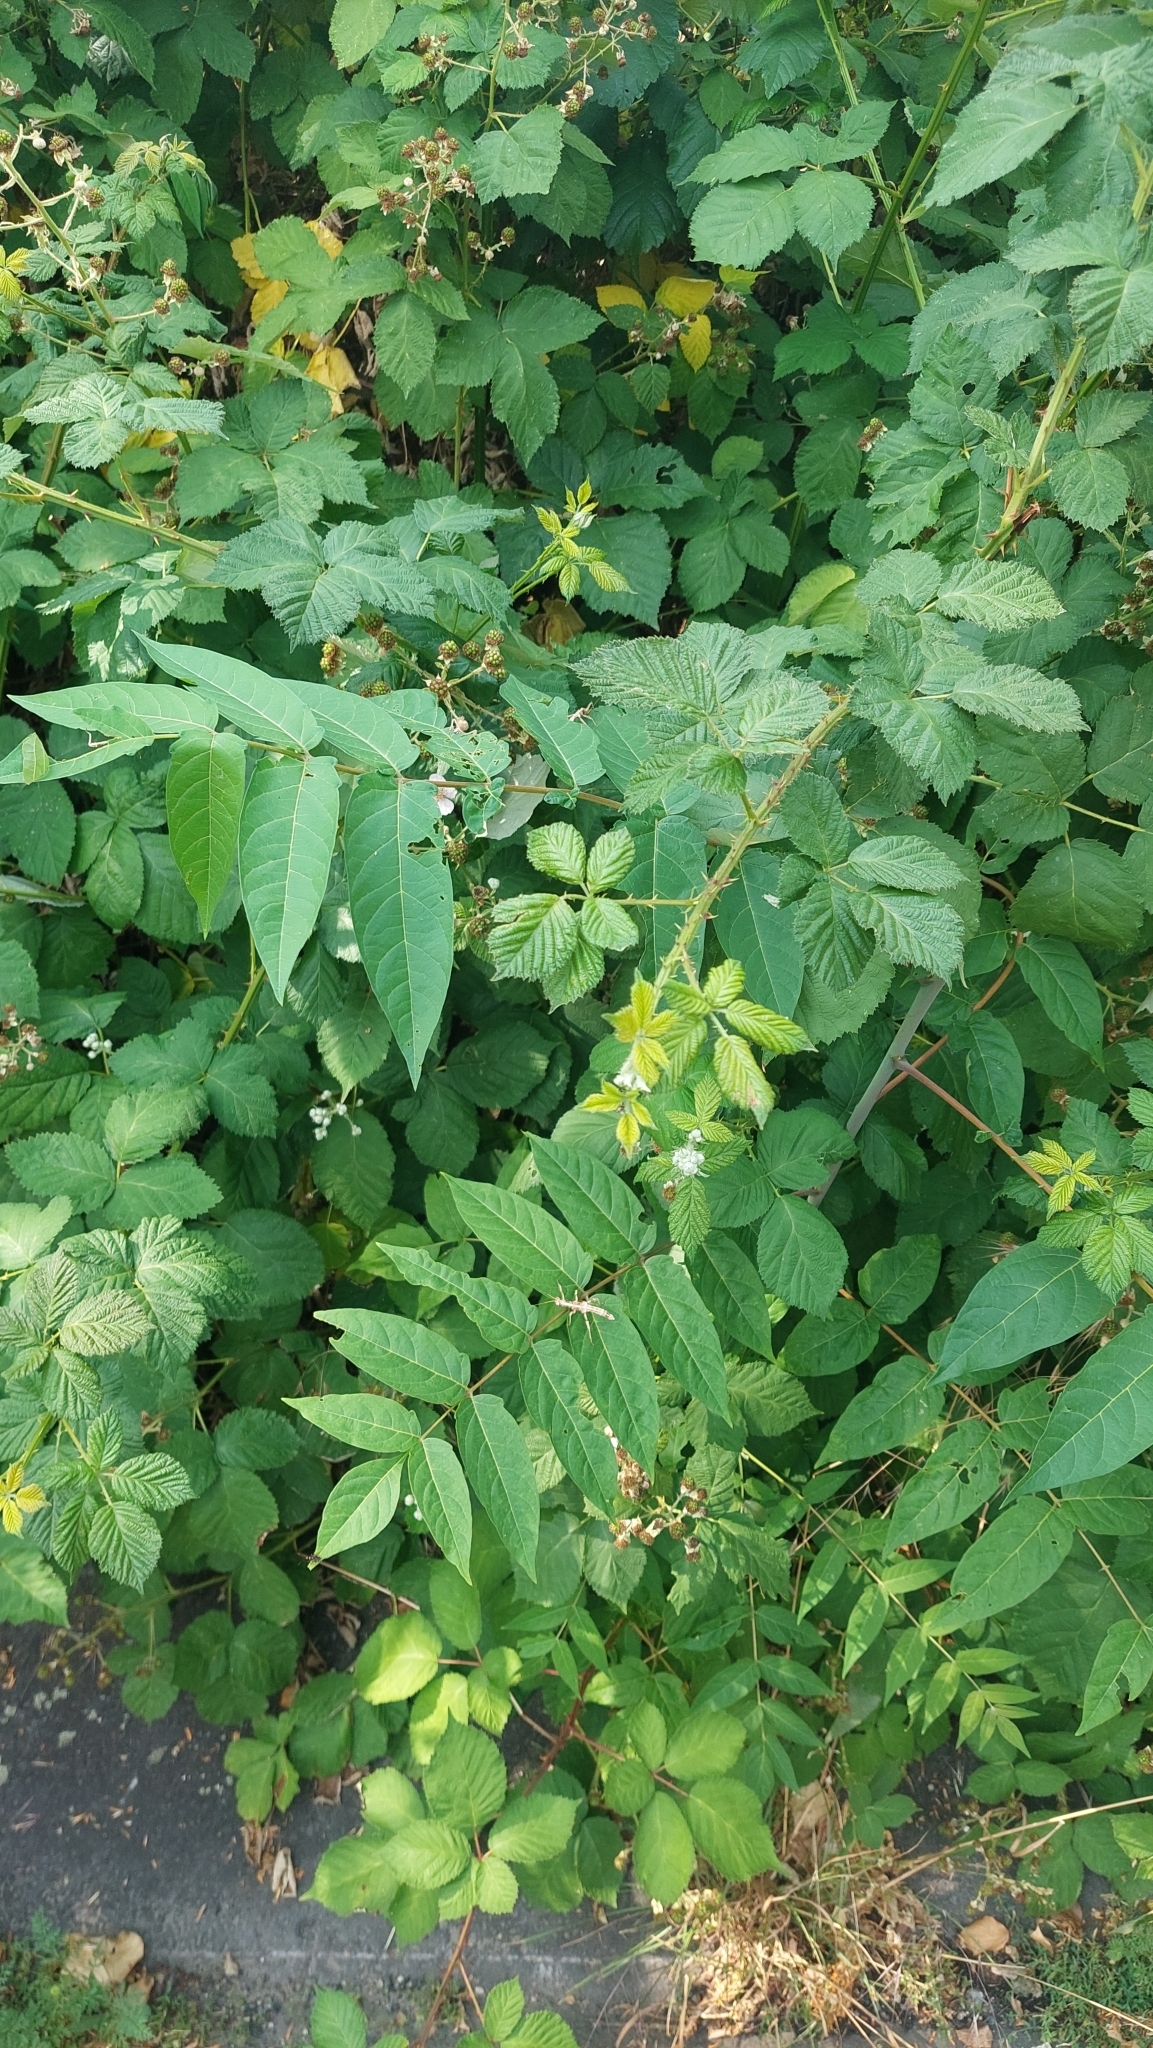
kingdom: Plantae
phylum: Tracheophyta
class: Magnoliopsida
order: Sapindales
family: Simaroubaceae
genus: Ailanthus
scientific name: Ailanthus altissima
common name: Tree-of-heaven
